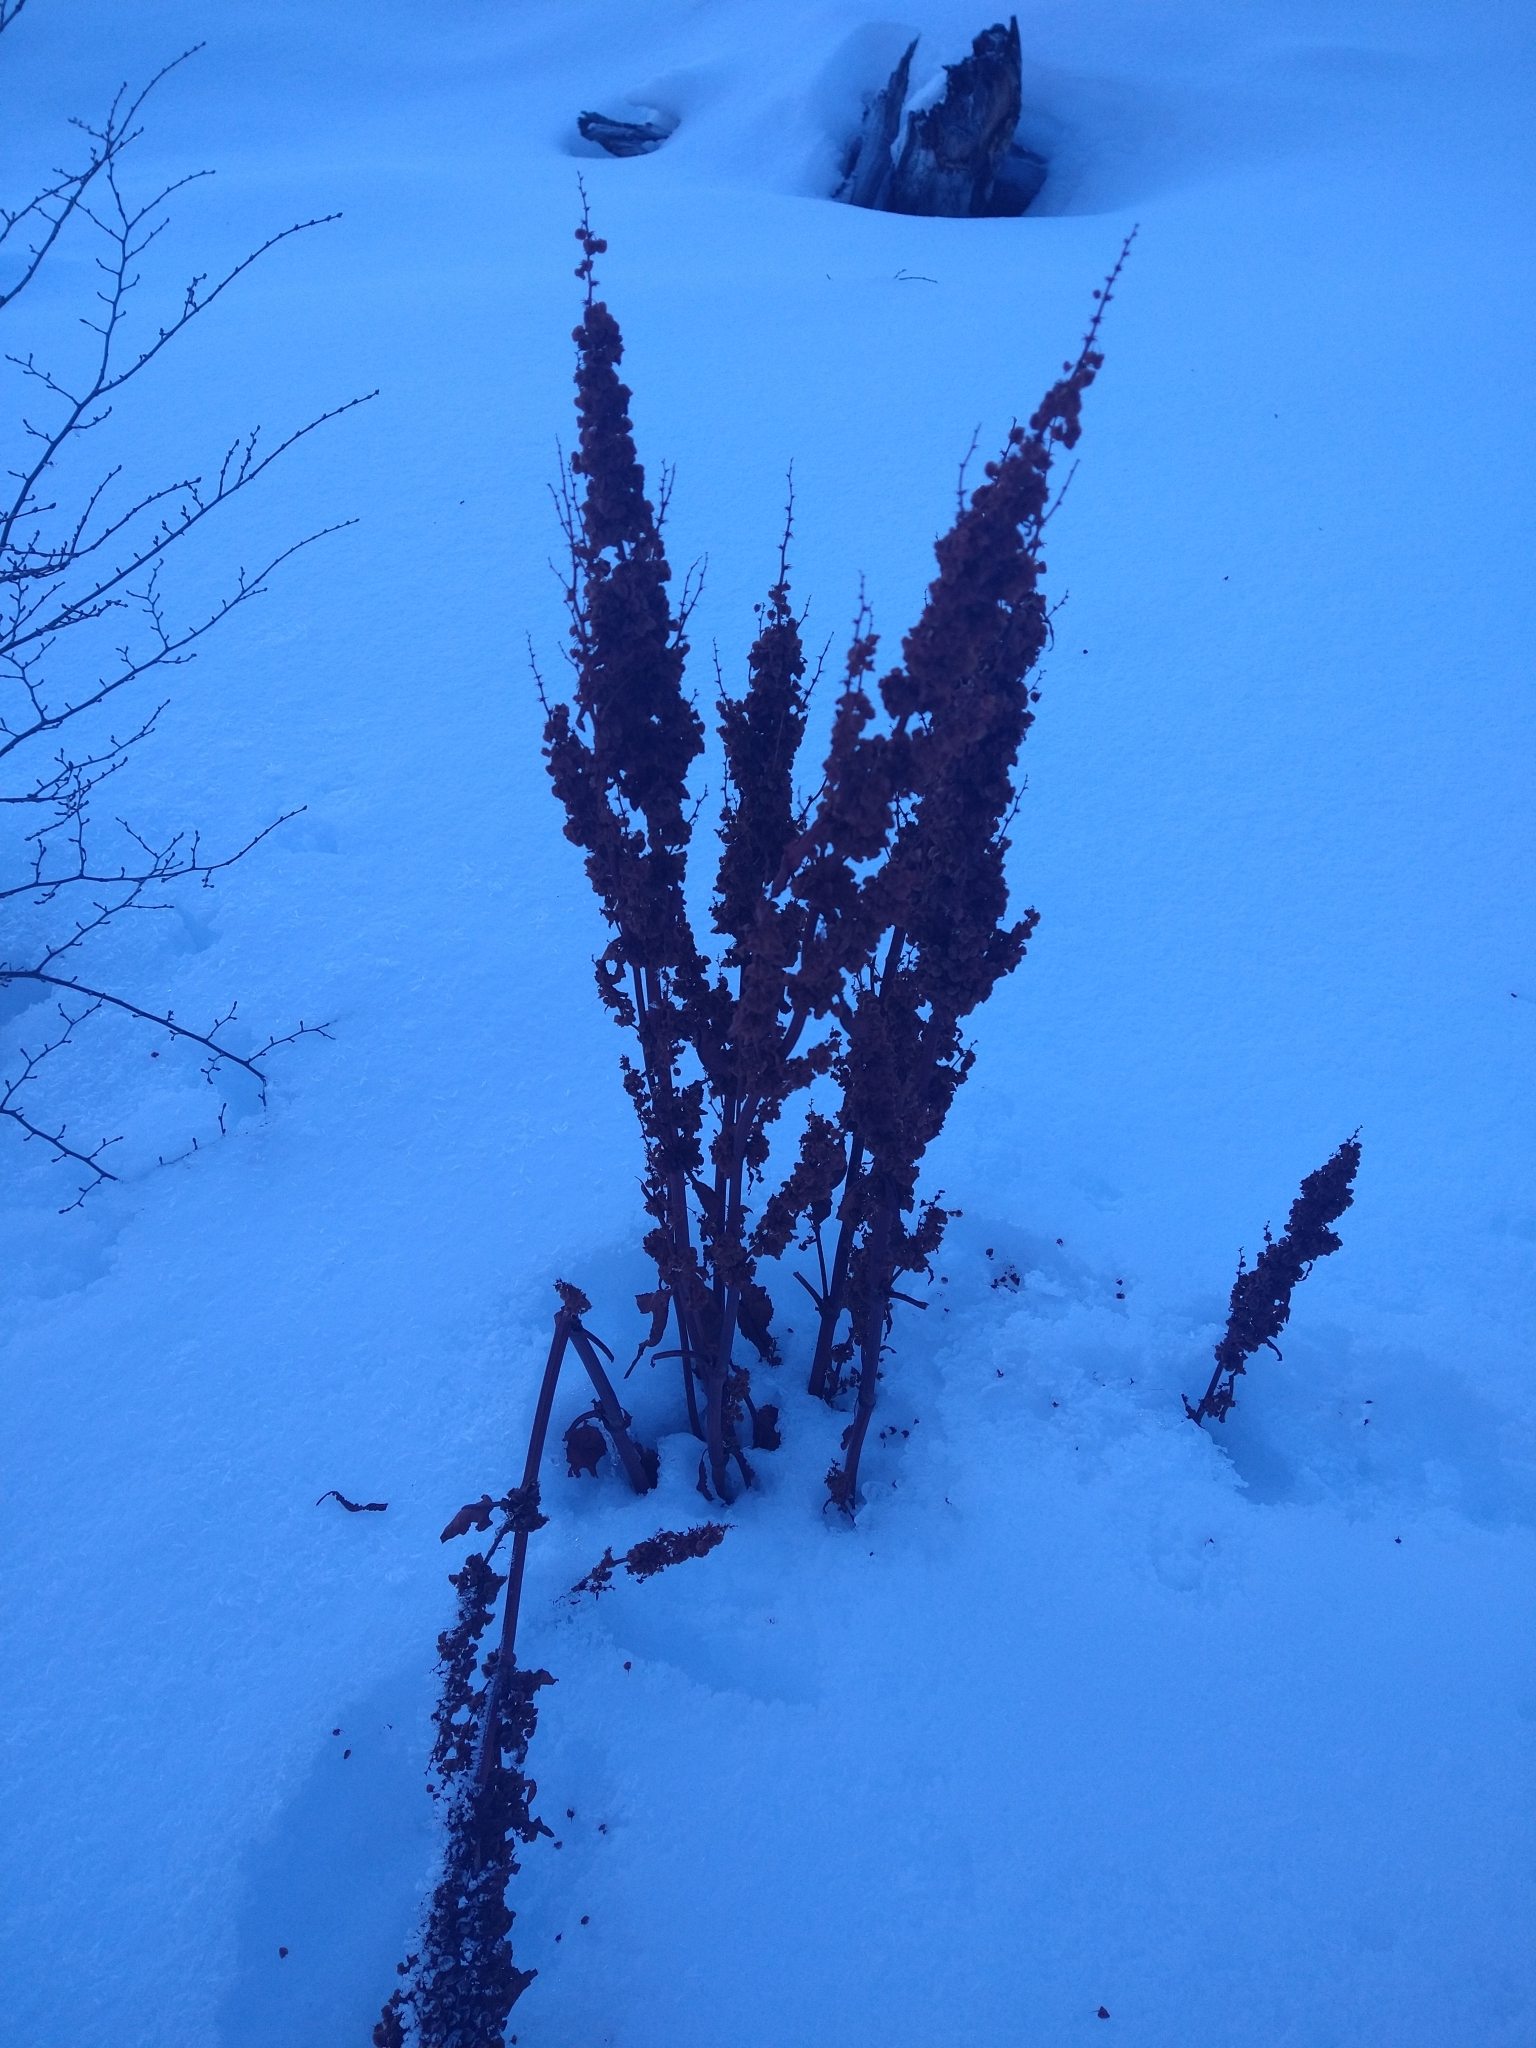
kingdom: Plantae
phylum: Tracheophyta
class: Magnoliopsida
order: Caryophyllales
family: Polygonaceae
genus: Rumex
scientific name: Rumex crispus
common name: Curled dock
